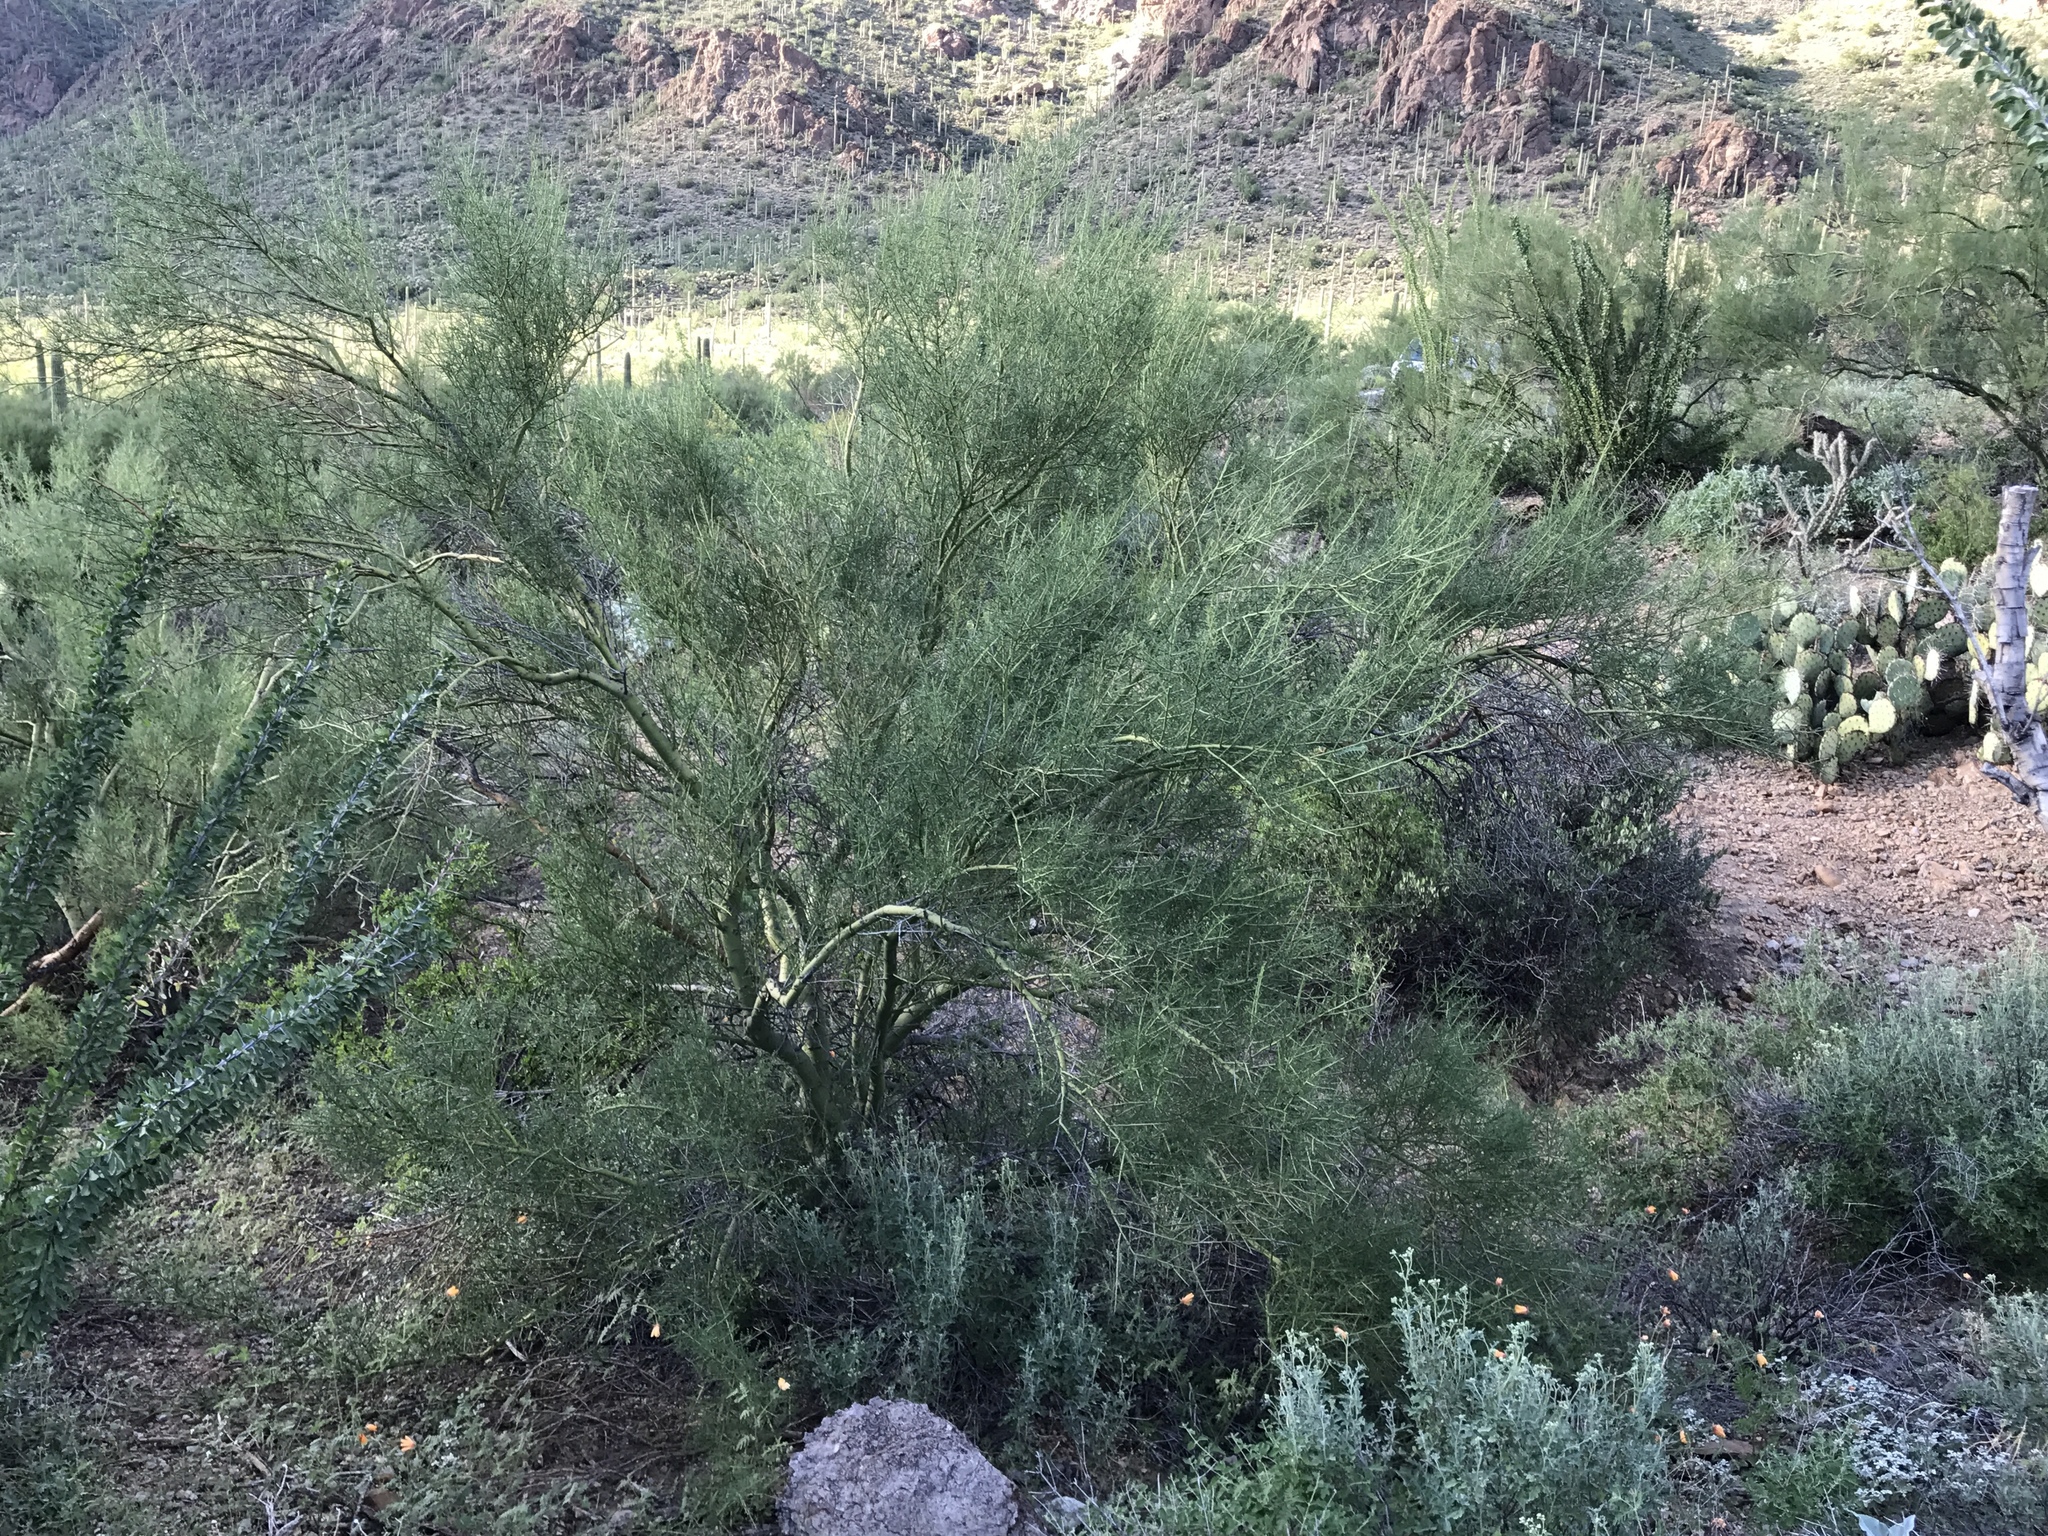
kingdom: Plantae
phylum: Tracheophyta
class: Magnoliopsida
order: Fabales
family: Fabaceae
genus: Parkinsonia
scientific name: Parkinsonia florida
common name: Blue paloverde
